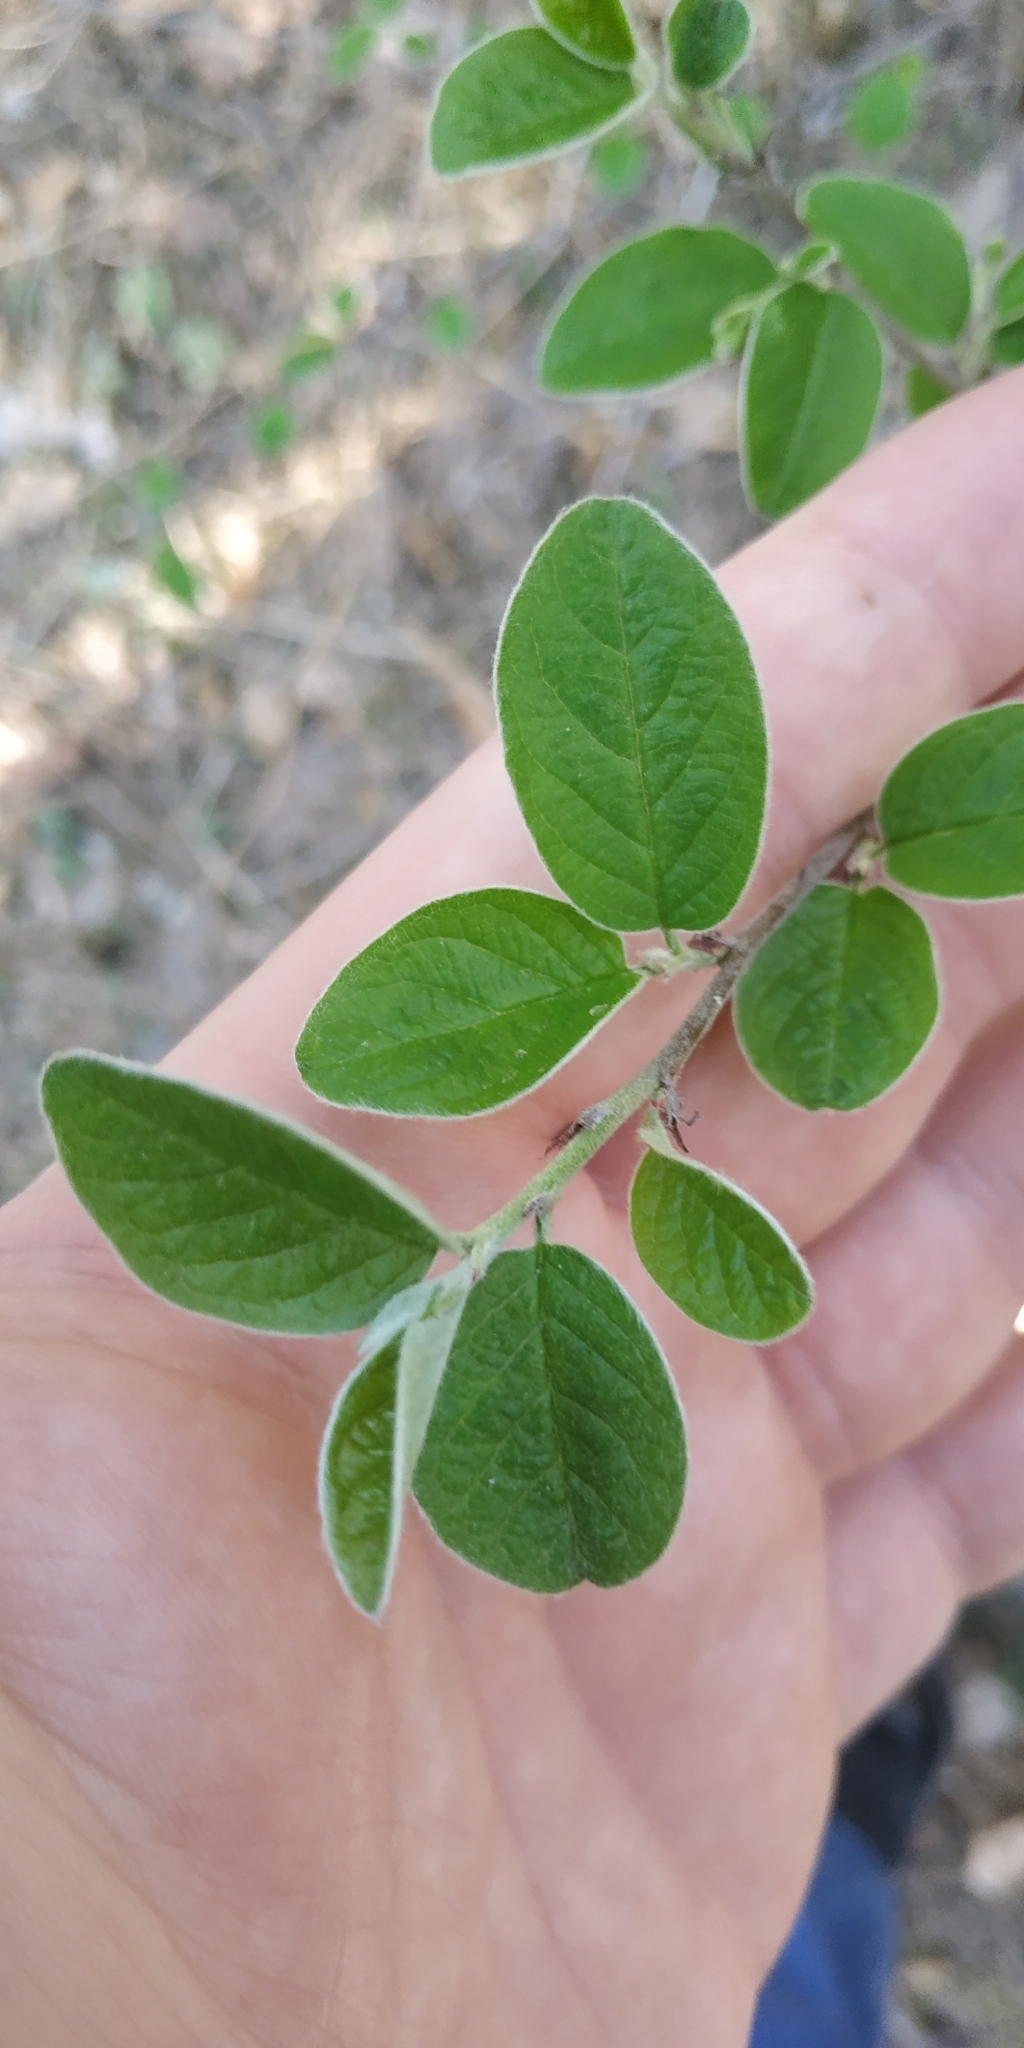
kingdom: Plantae
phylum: Tracheophyta
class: Magnoliopsida
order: Rosales
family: Rosaceae
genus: Cotoneaster
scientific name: Cotoneaster melanocarpus
